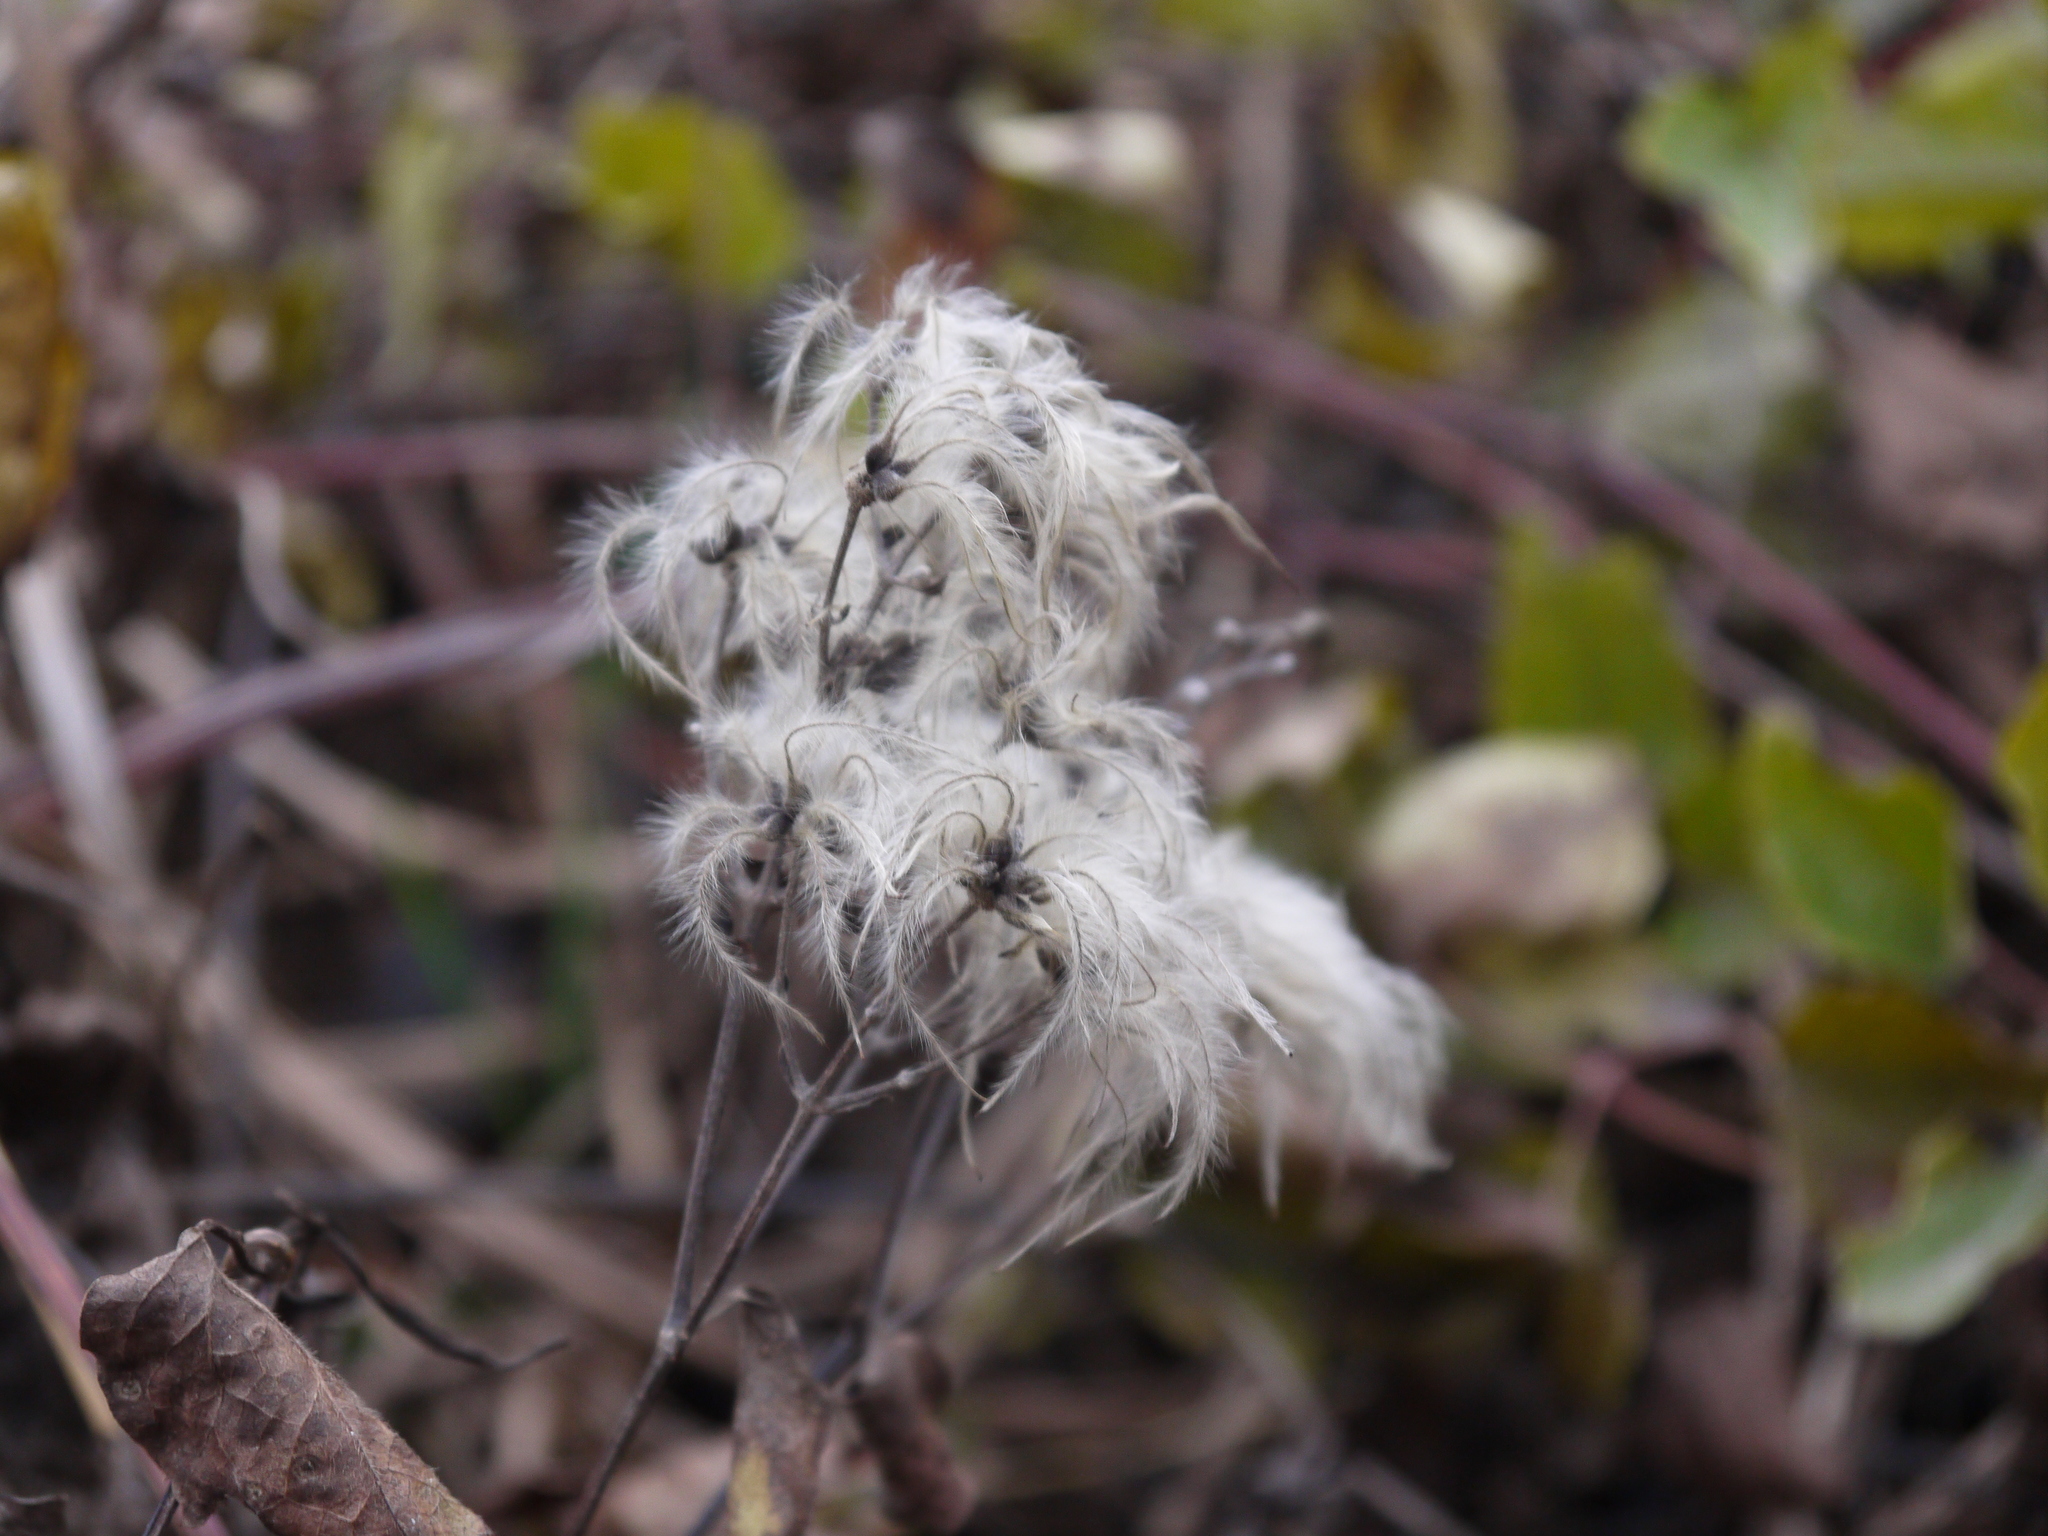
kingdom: Plantae
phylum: Tracheophyta
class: Magnoliopsida
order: Ranunculales
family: Ranunculaceae
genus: Clematis
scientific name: Clematis vitalba
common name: Evergreen clematis
